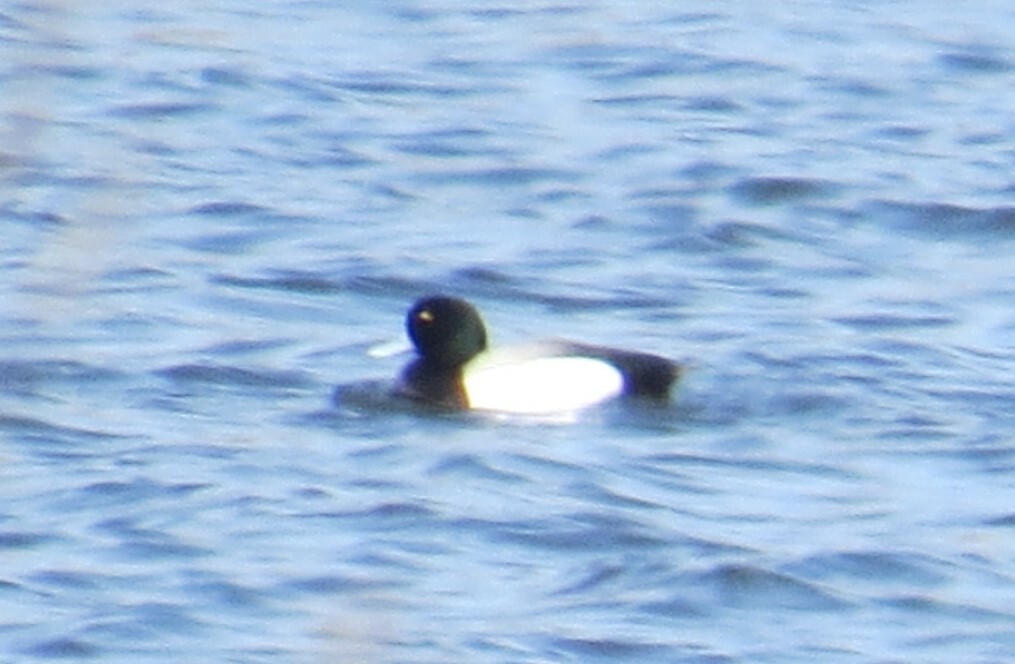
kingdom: Animalia
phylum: Chordata
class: Aves
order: Anseriformes
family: Anatidae
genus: Aythya
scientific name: Aythya marila
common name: Greater scaup
